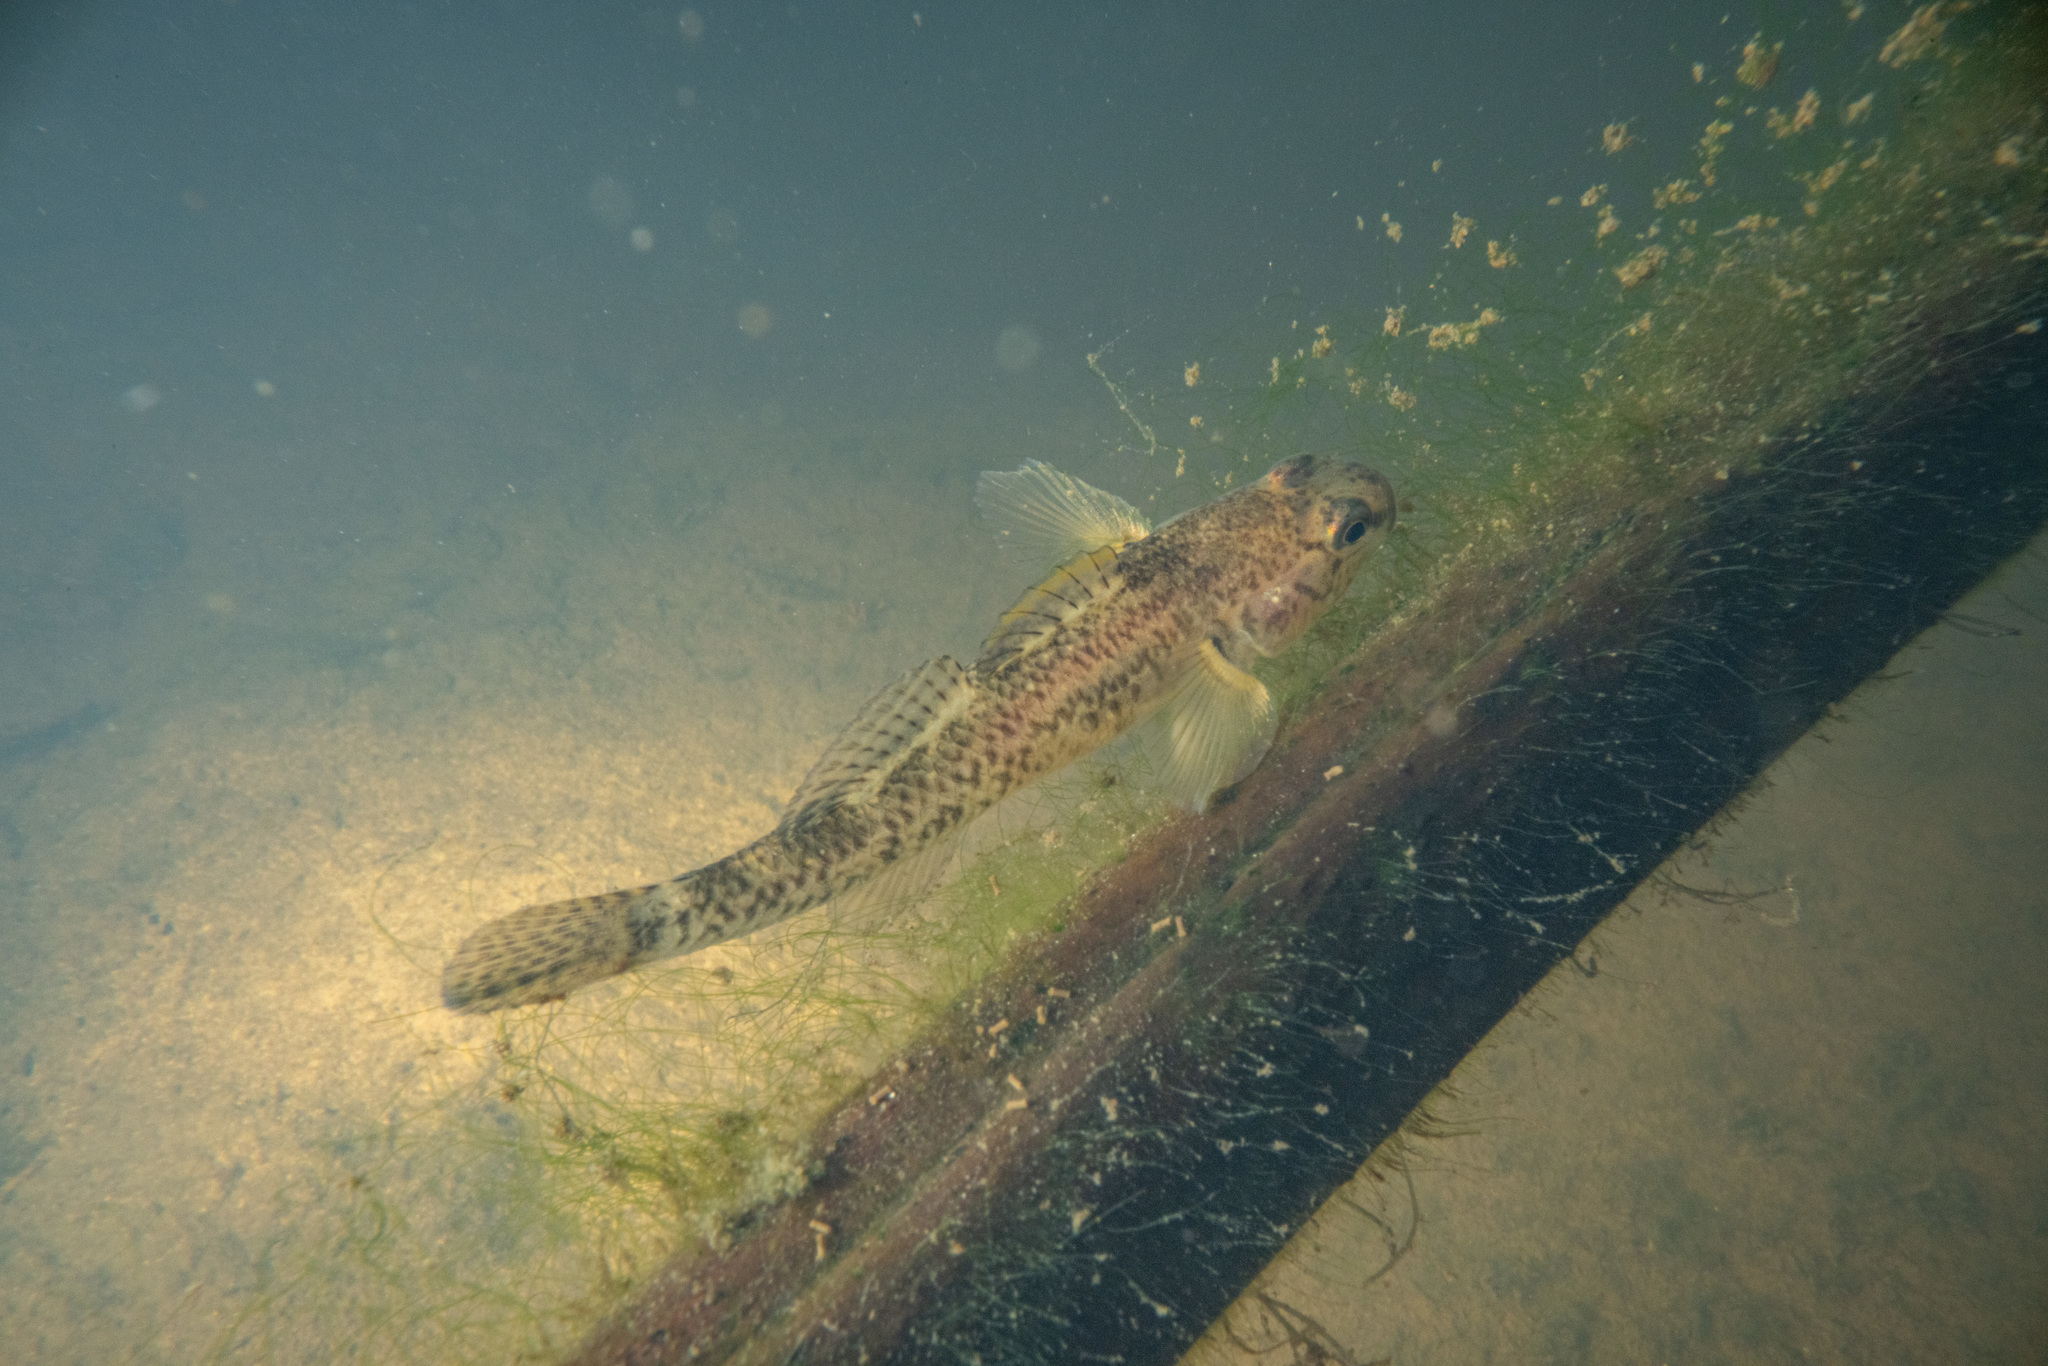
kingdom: Animalia
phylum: Chordata
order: Perciformes
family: Eleotridae
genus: Gobiomorphus
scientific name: Gobiomorphus cotidianus
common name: Common bully
